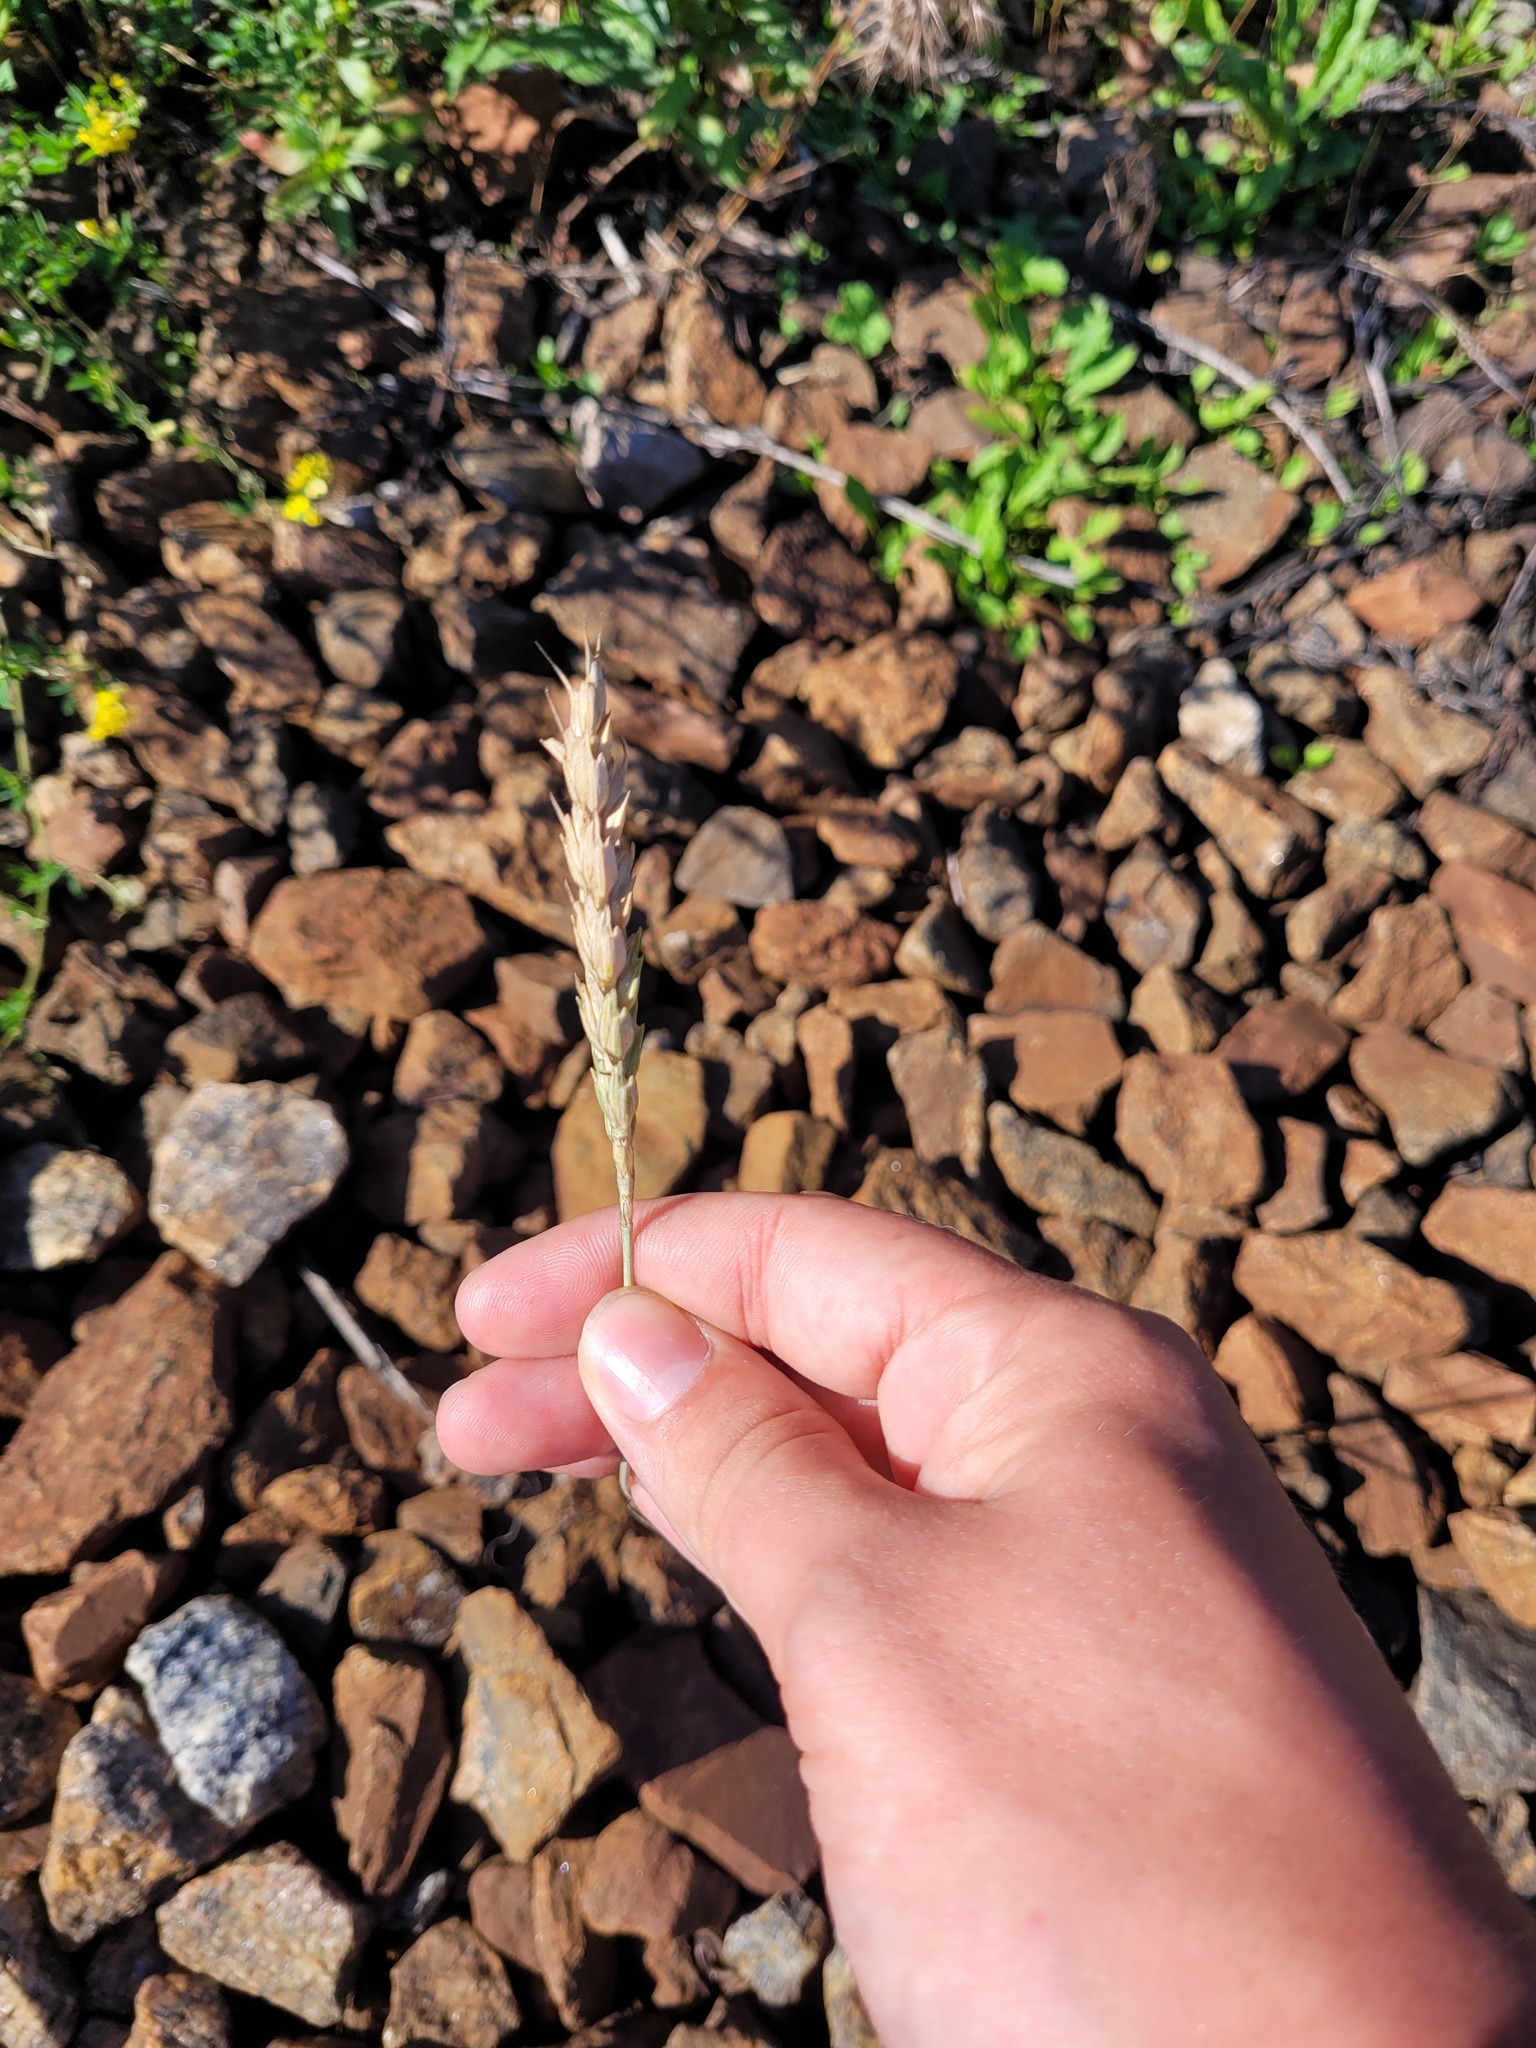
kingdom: Plantae
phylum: Tracheophyta
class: Liliopsida
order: Poales
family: Poaceae
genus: Triticum
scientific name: Triticum aestivum
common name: Common wheat
